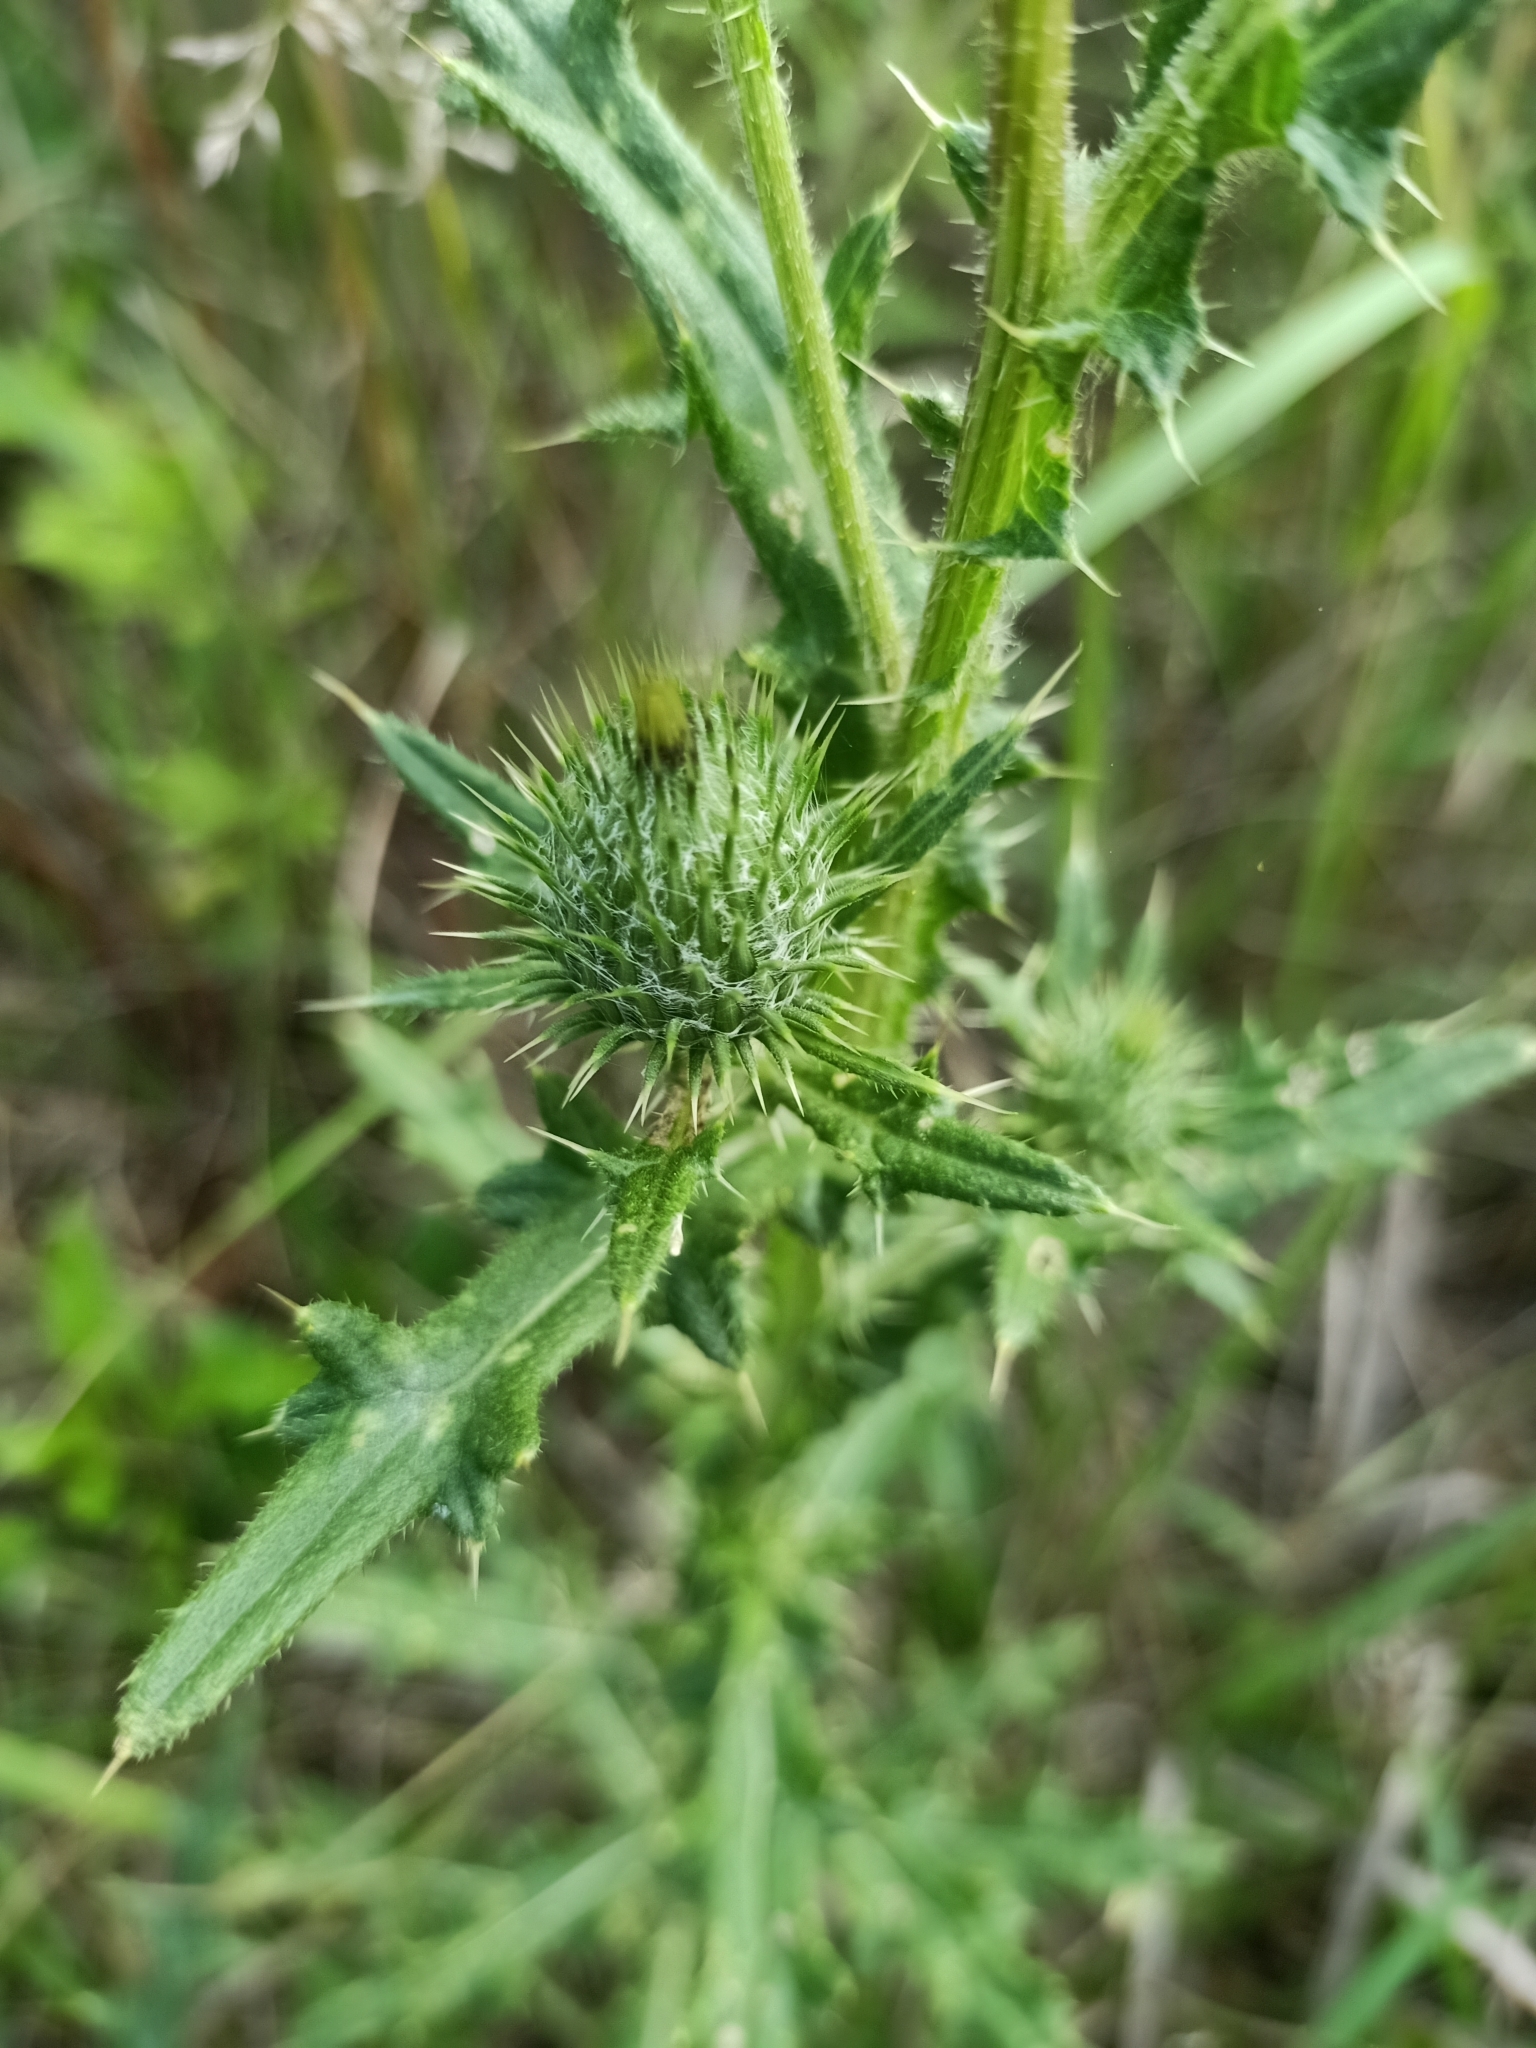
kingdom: Plantae
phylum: Tracheophyta
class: Magnoliopsida
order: Asterales
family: Asteraceae
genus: Cirsium
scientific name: Cirsium vulgare
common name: Bull thistle
